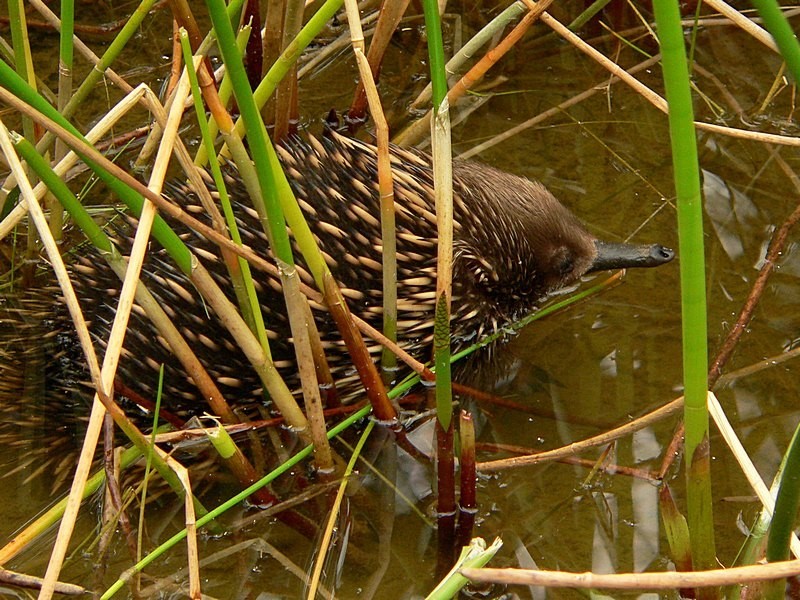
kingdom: Animalia
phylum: Chordata
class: Mammalia
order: Monotremata
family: Tachyglossidae
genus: Tachyglossus
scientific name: Tachyglossus aculeatus
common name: Short-beaked echidna
